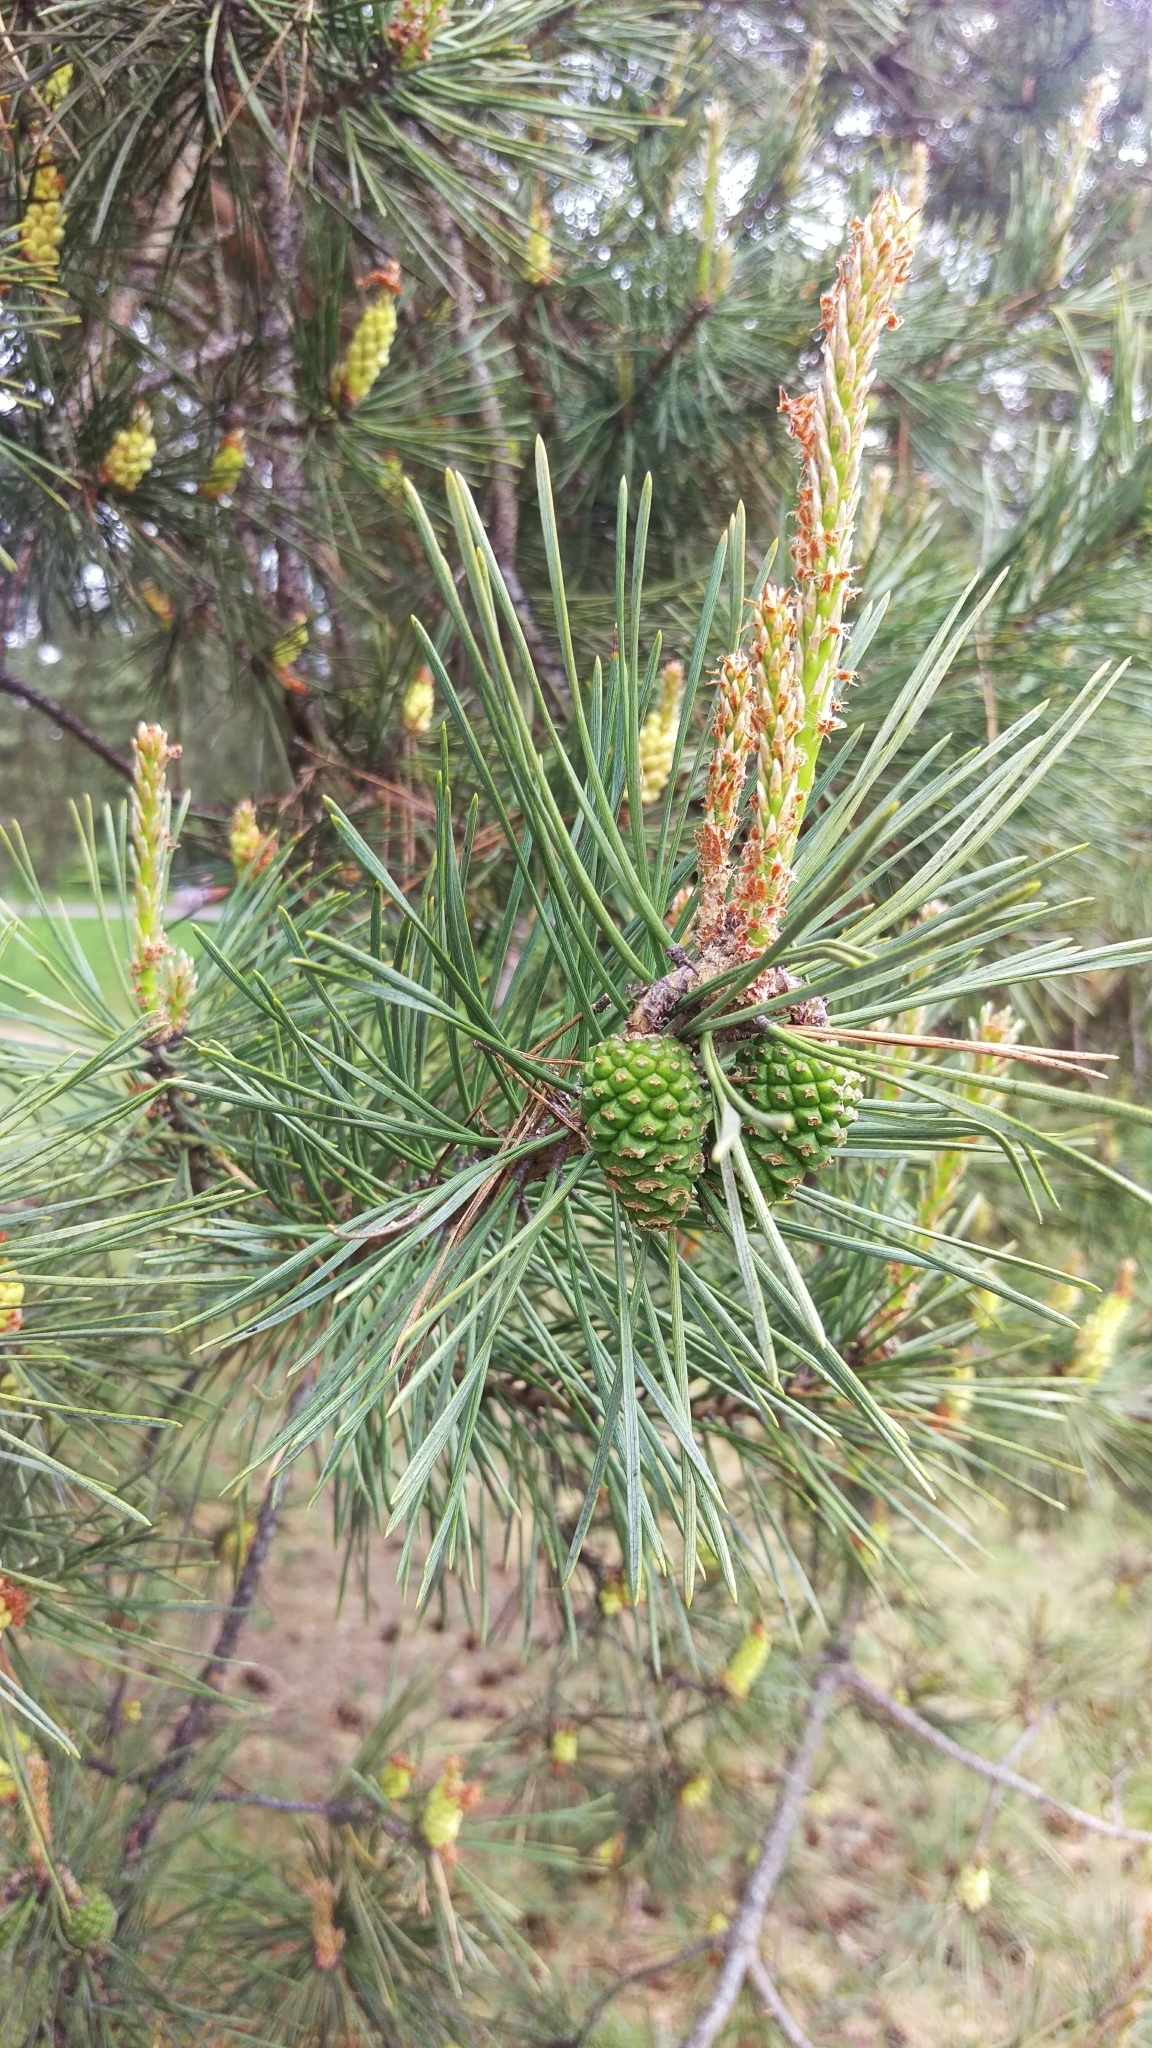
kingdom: Plantae
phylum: Tracheophyta
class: Pinopsida
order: Pinales
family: Pinaceae
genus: Pinus
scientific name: Pinus sylvestris
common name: Scots pine
